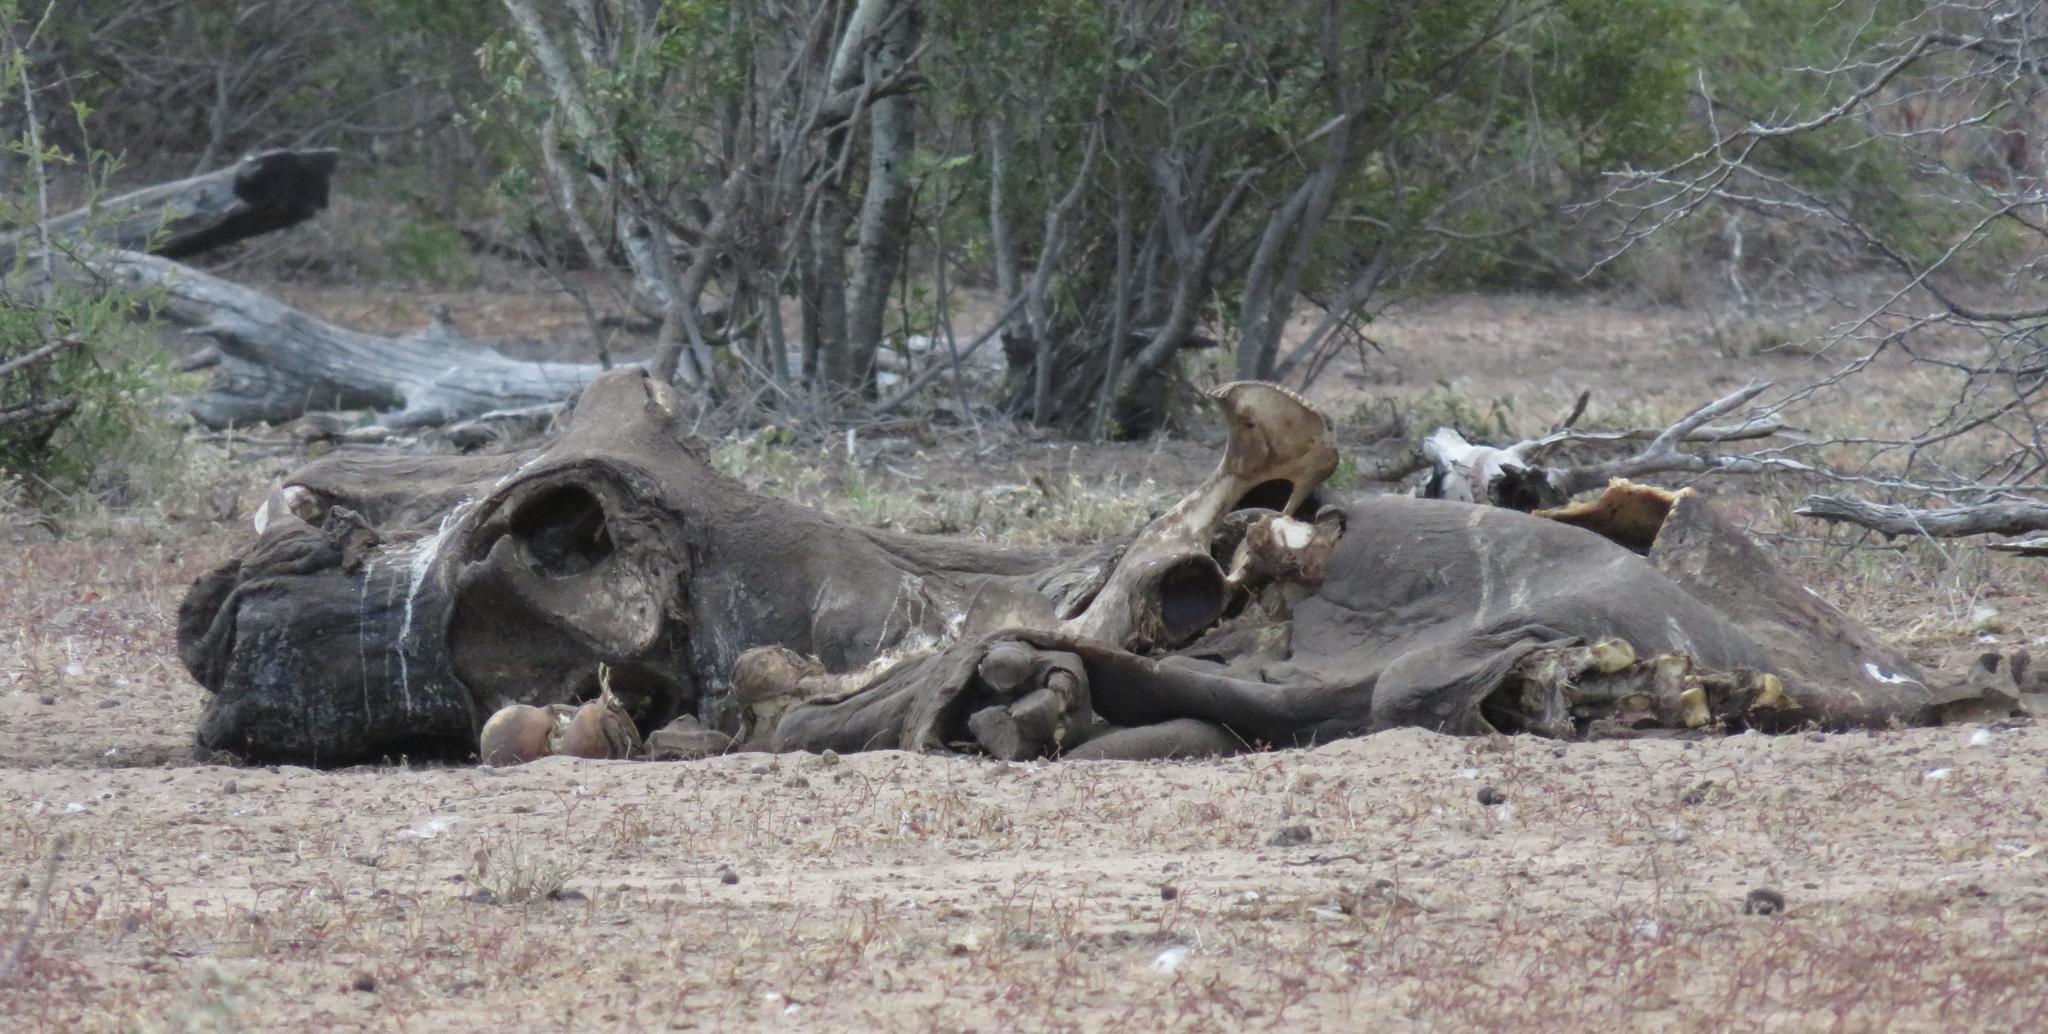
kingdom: Animalia
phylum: Chordata
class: Mammalia
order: Artiodactyla
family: Hippopotamidae
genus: Hippopotamus
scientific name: Hippopotamus amphibius
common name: Common hippopotamus
